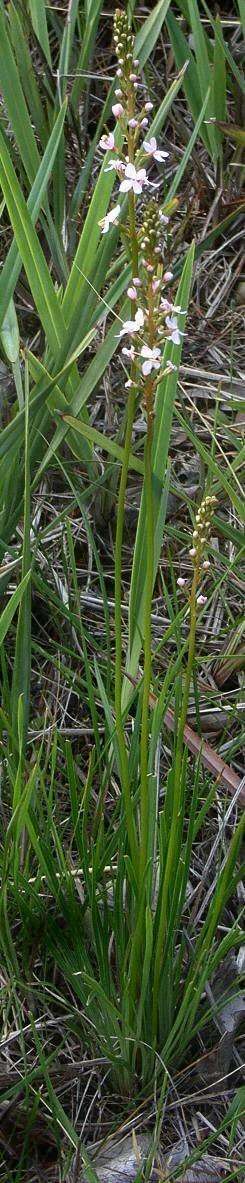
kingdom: Plantae
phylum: Tracheophyta
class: Magnoliopsida
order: Asterales
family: Stylidiaceae
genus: Stylidium
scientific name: Stylidium graminifolium
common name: Grass triggerplant
